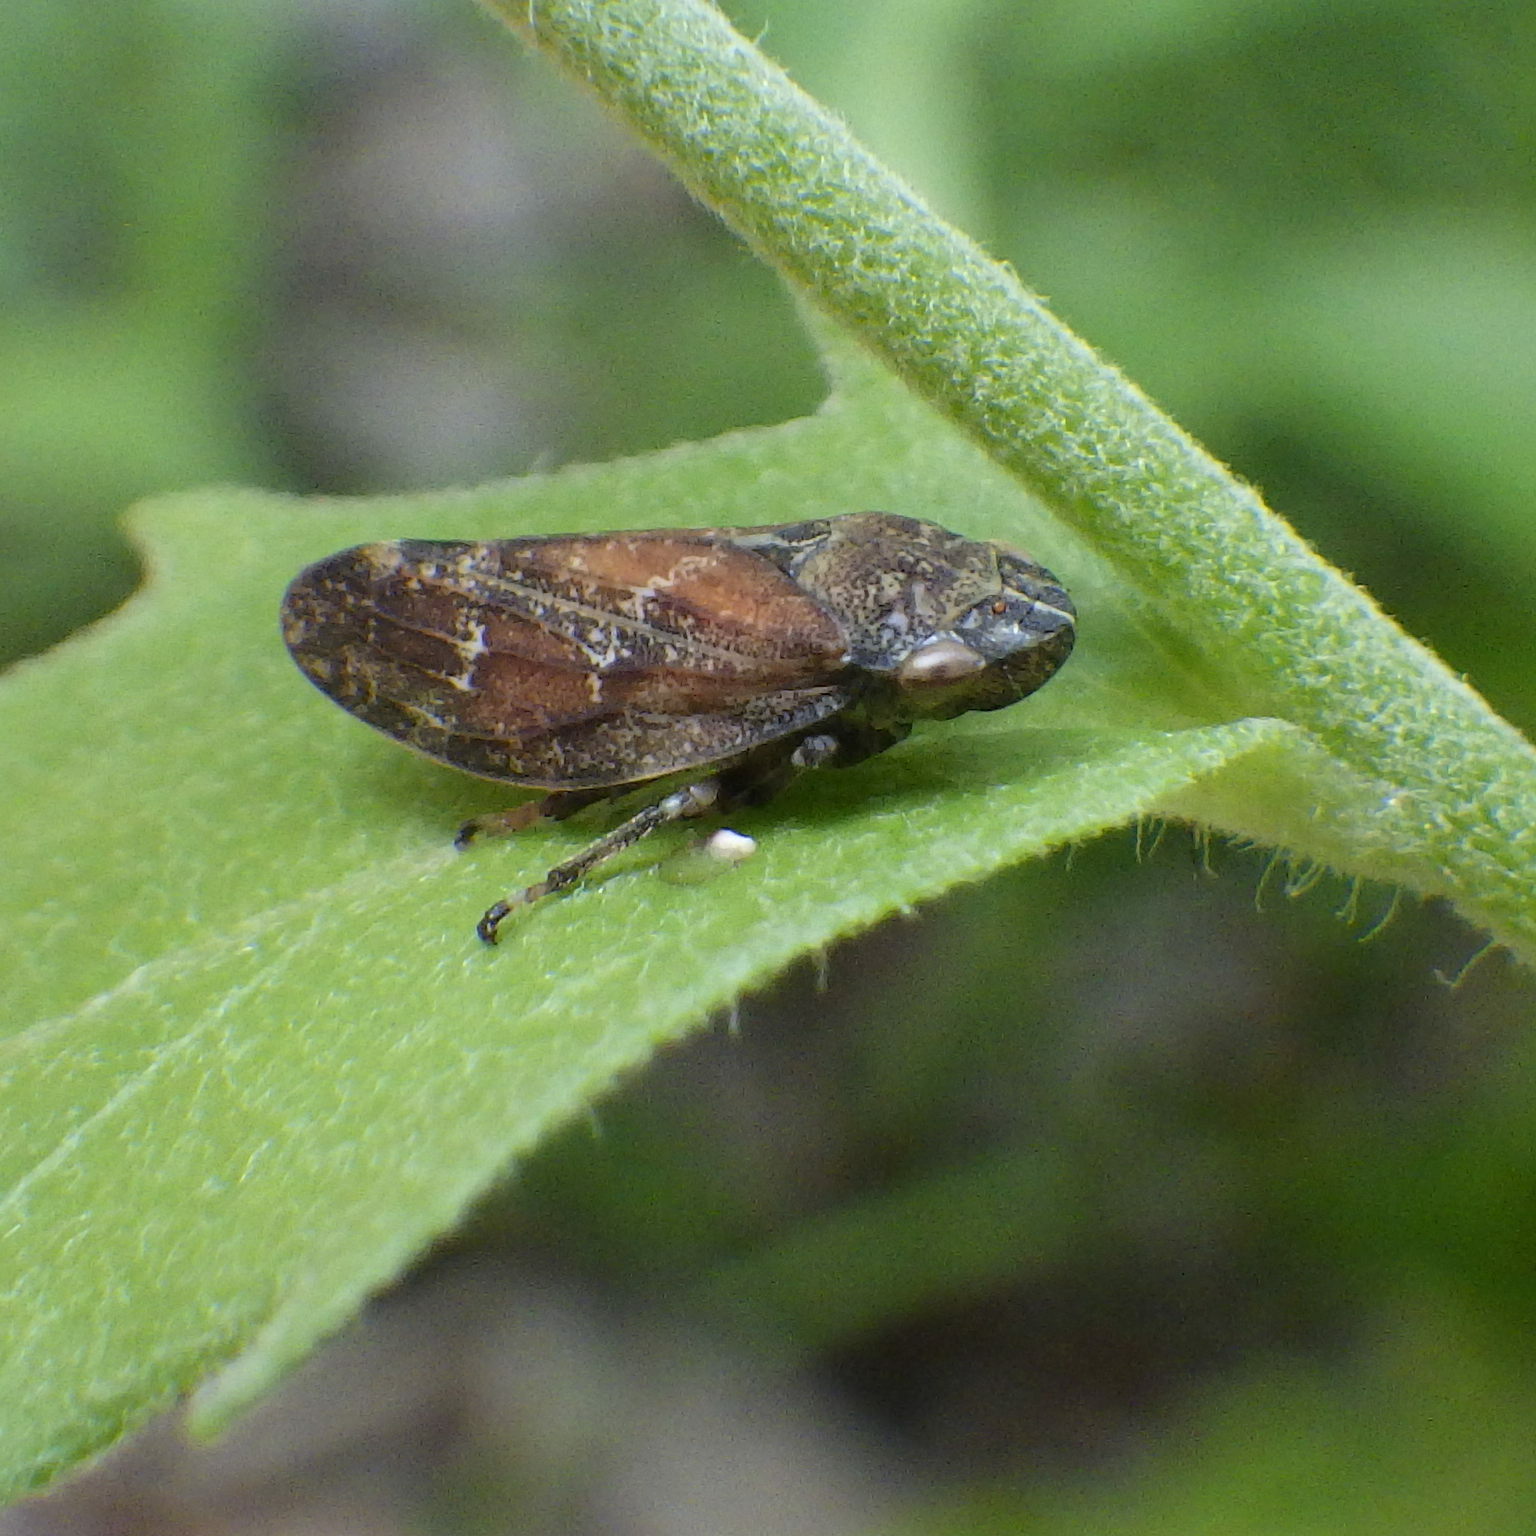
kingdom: Animalia
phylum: Arthropoda
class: Insecta
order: Hemiptera
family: Aphrophoridae
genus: Philaenus
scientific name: Philaenus spumarius
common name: Meadow spittlebug
